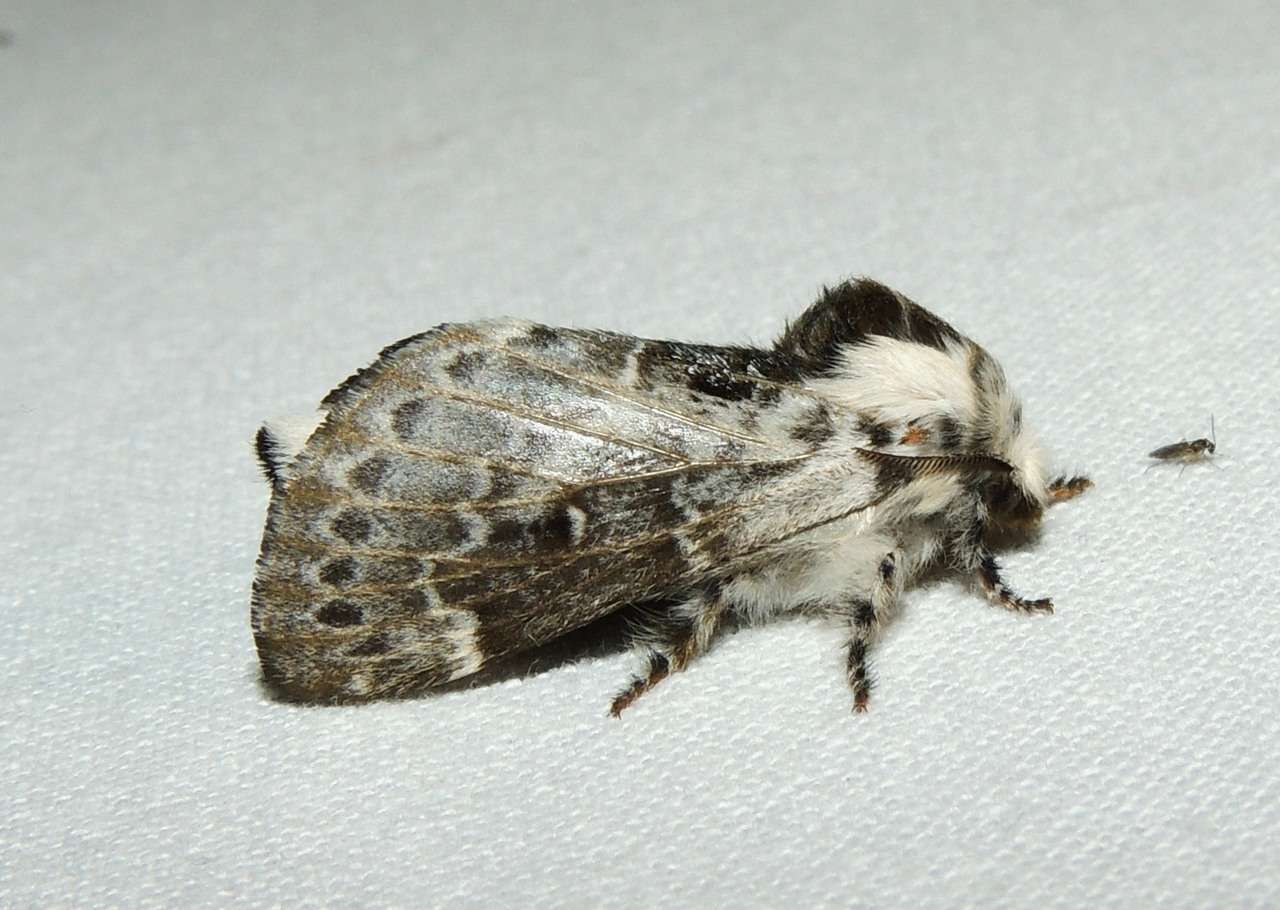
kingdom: Animalia
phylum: Arthropoda
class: Insecta
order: Lepidoptera
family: Lasiocampidae
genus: Genduara
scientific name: Genduara subnotata
